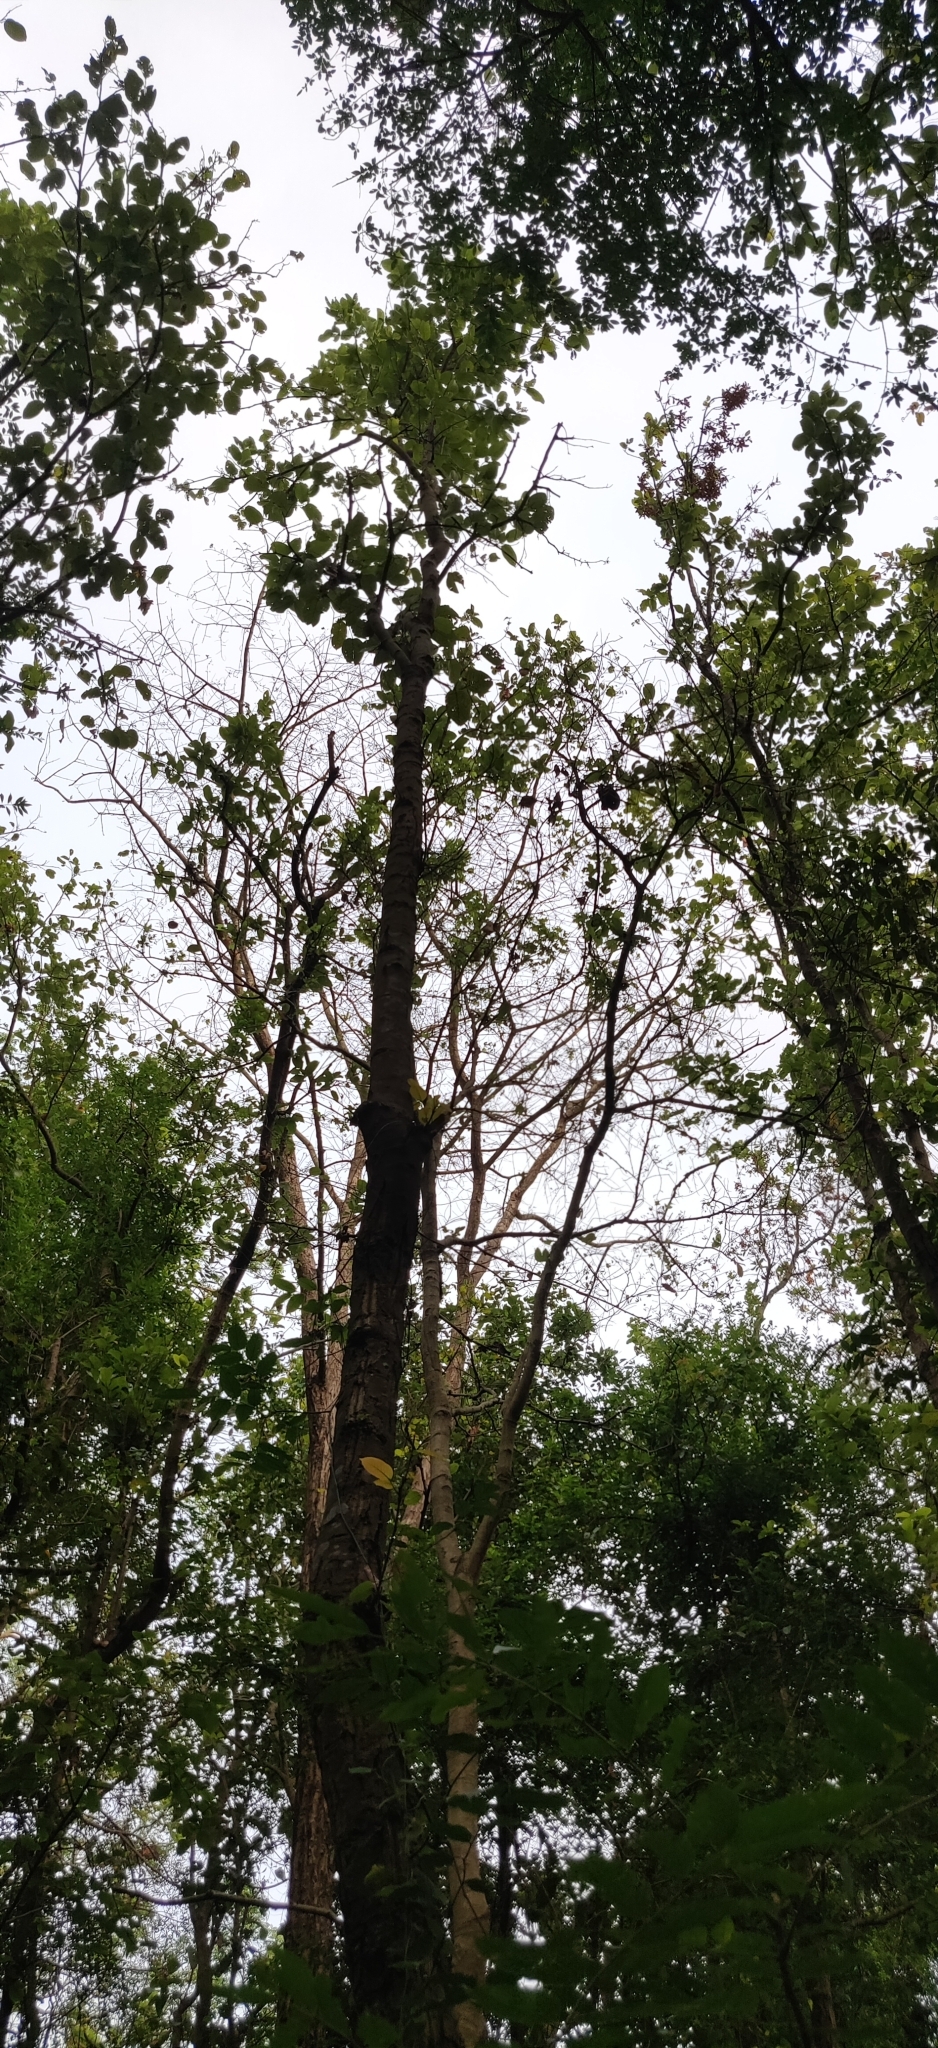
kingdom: Plantae
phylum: Tracheophyta
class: Magnoliopsida
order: Malvales
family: Dipterocarpaceae
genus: Shorea
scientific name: Shorea robusta
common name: Saltree
